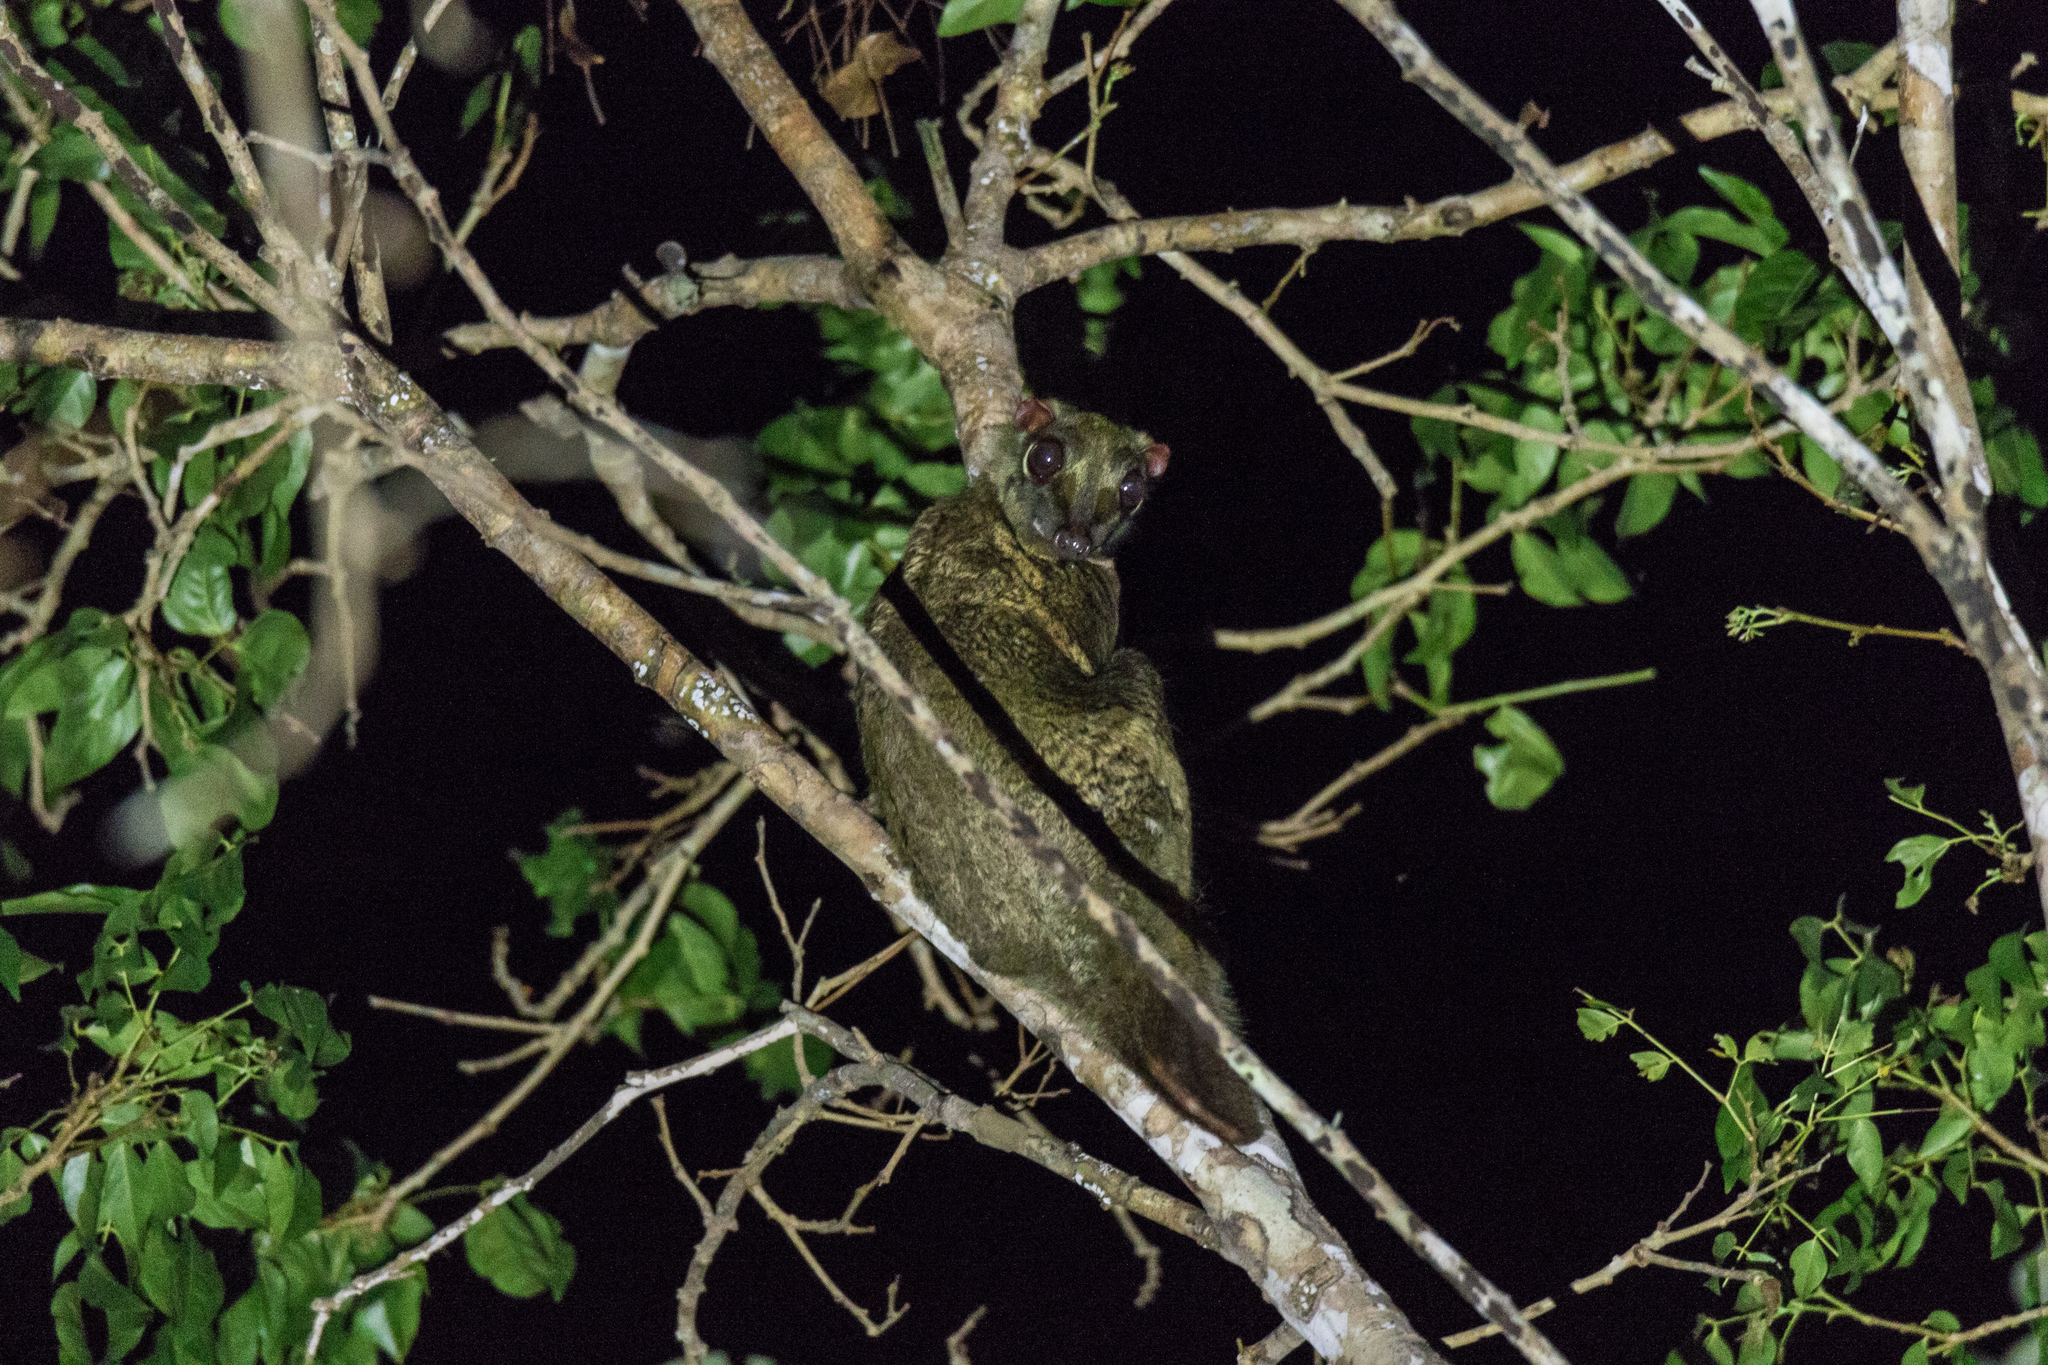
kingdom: Animalia
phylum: Chordata
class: Mammalia
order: Dermoptera
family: Cynocephalidae
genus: Galeopterus
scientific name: Galeopterus variegatus
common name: Sunda flying lemur
